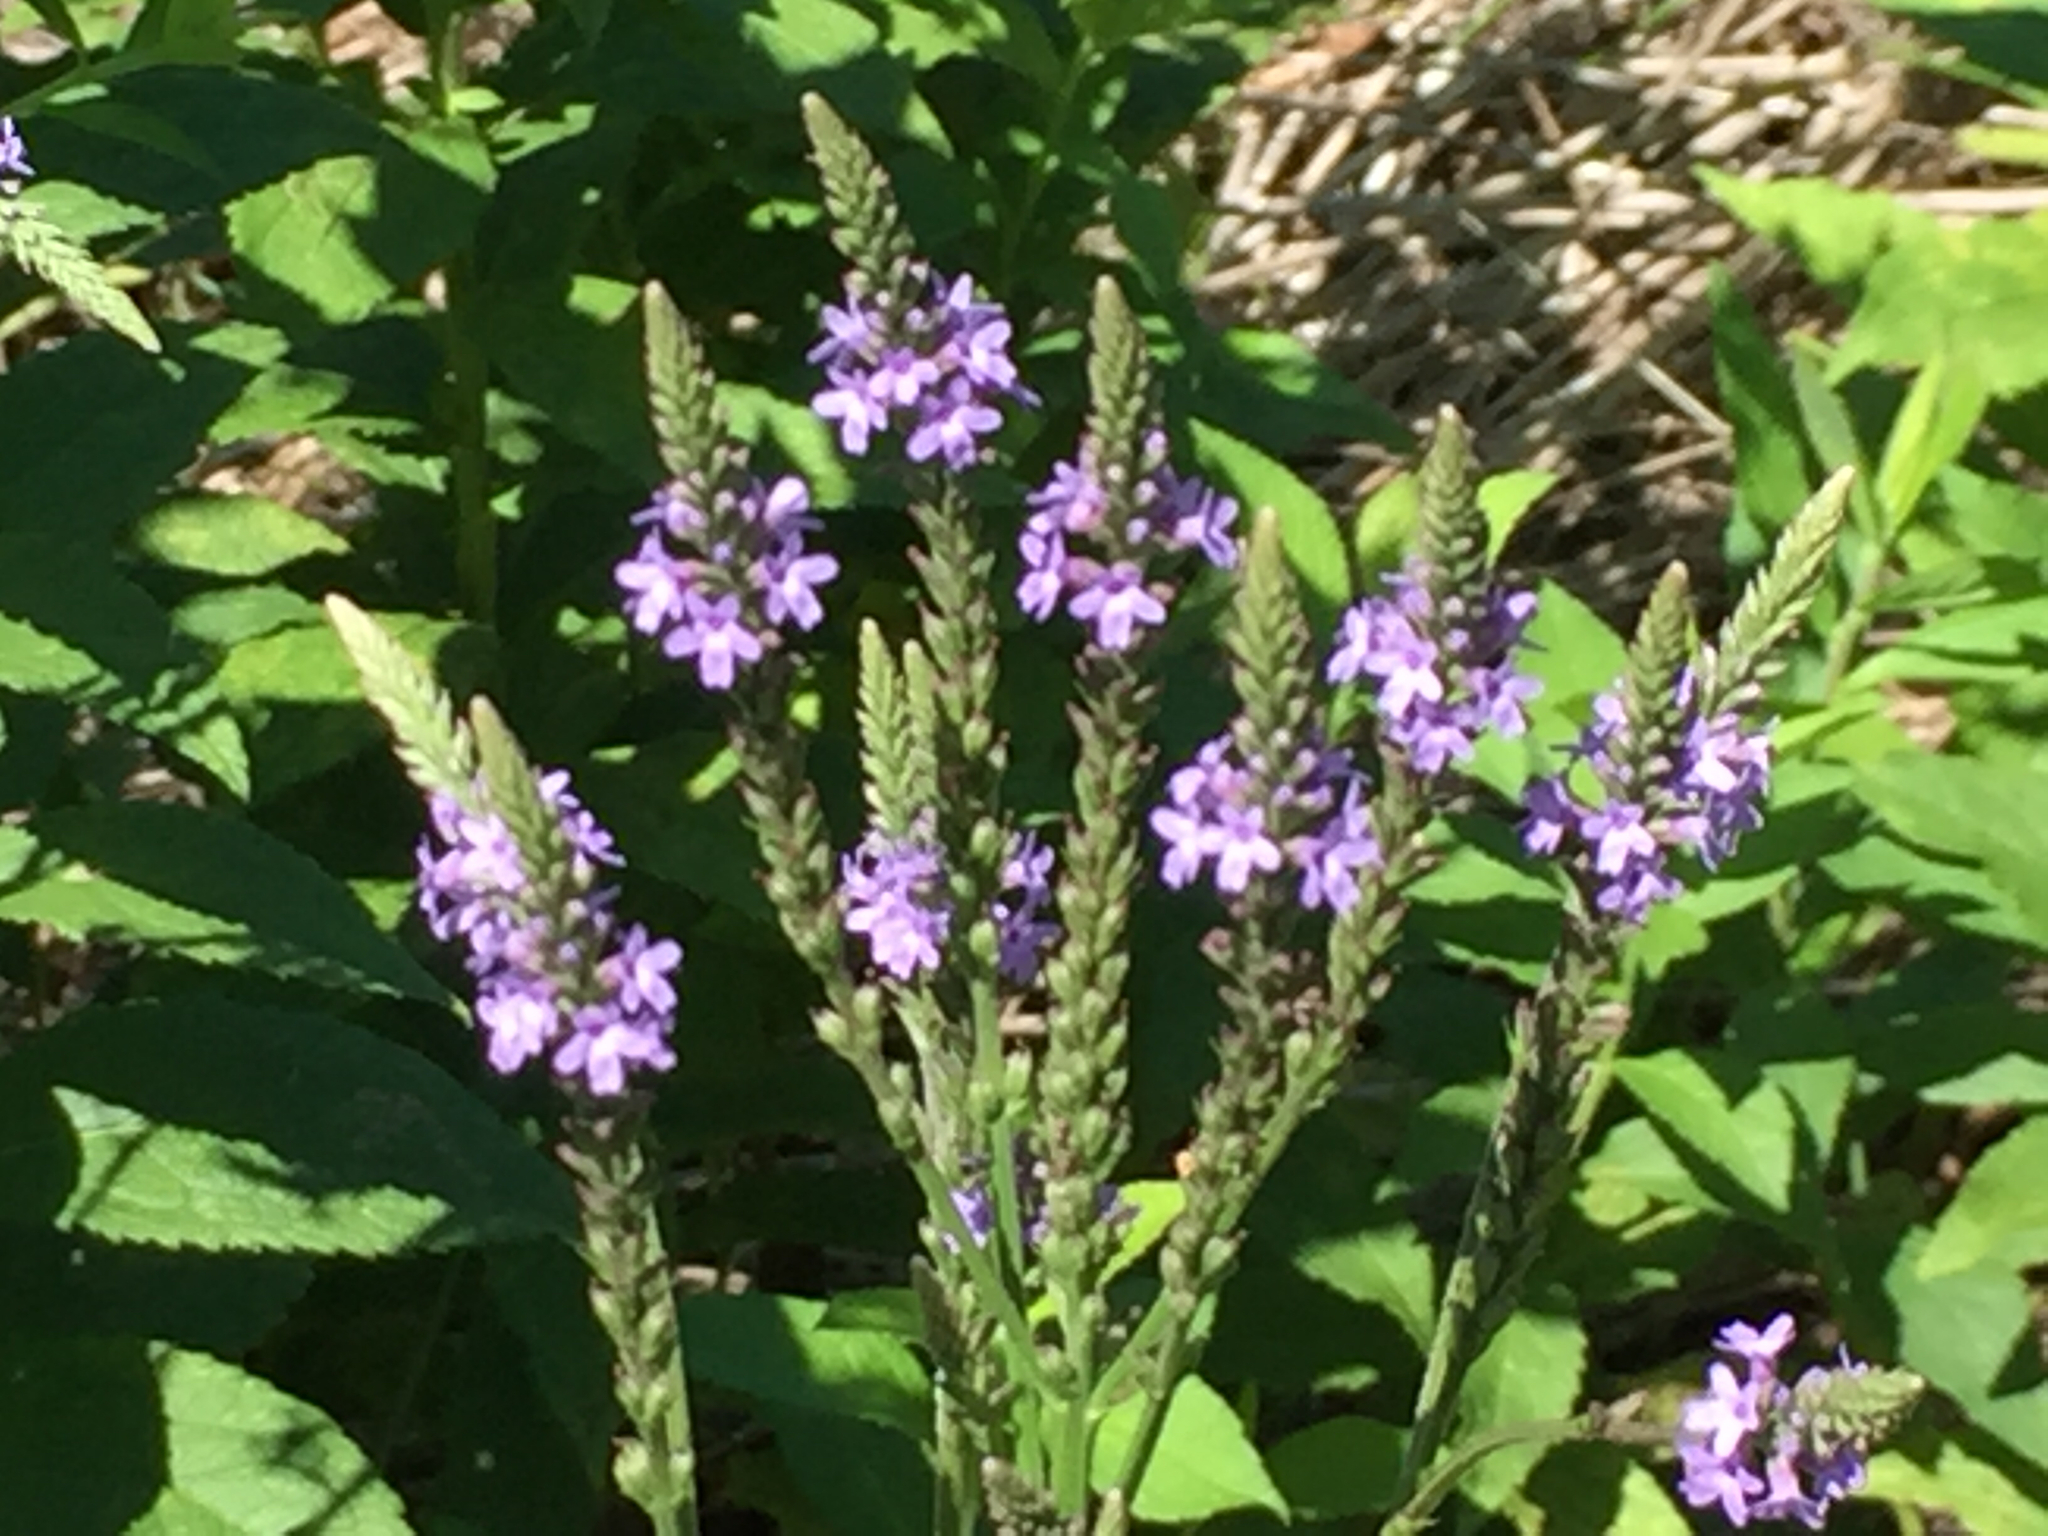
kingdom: Plantae
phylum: Tracheophyta
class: Magnoliopsida
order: Lamiales
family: Verbenaceae
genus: Verbena
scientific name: Verbena hastata
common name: American blue vervain
